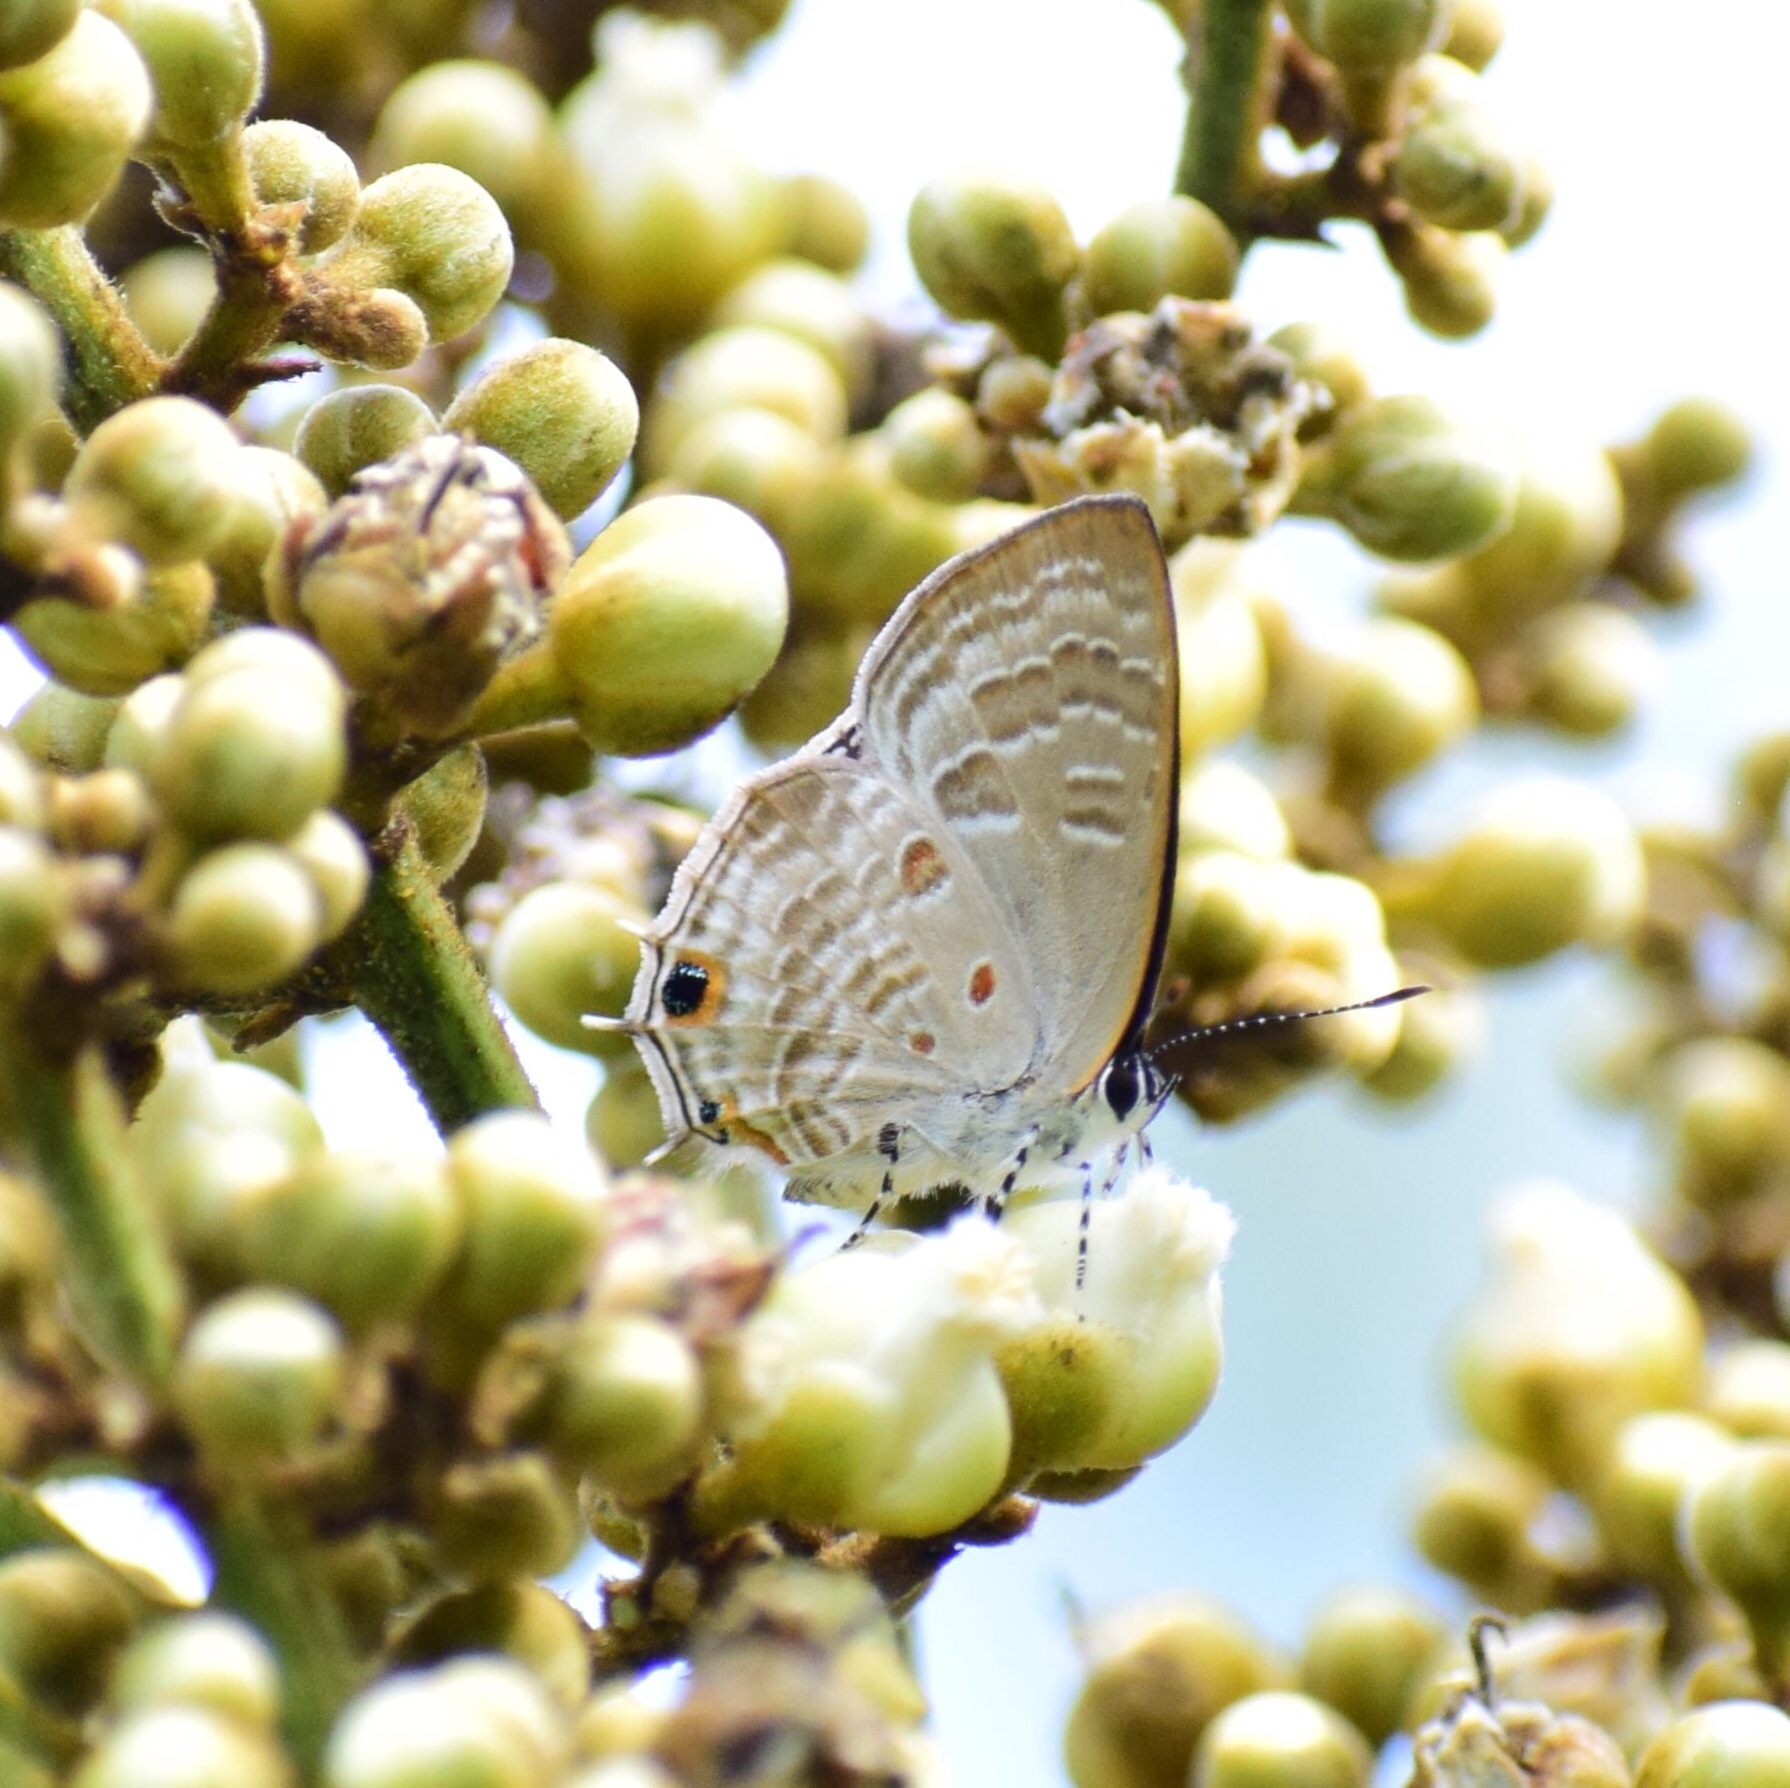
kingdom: Animalia
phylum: Arthropoda
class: Insecta
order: Lepidoptera
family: Lycaenidae
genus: Anthene
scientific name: Anthene lemnos
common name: Large ciliate blue
